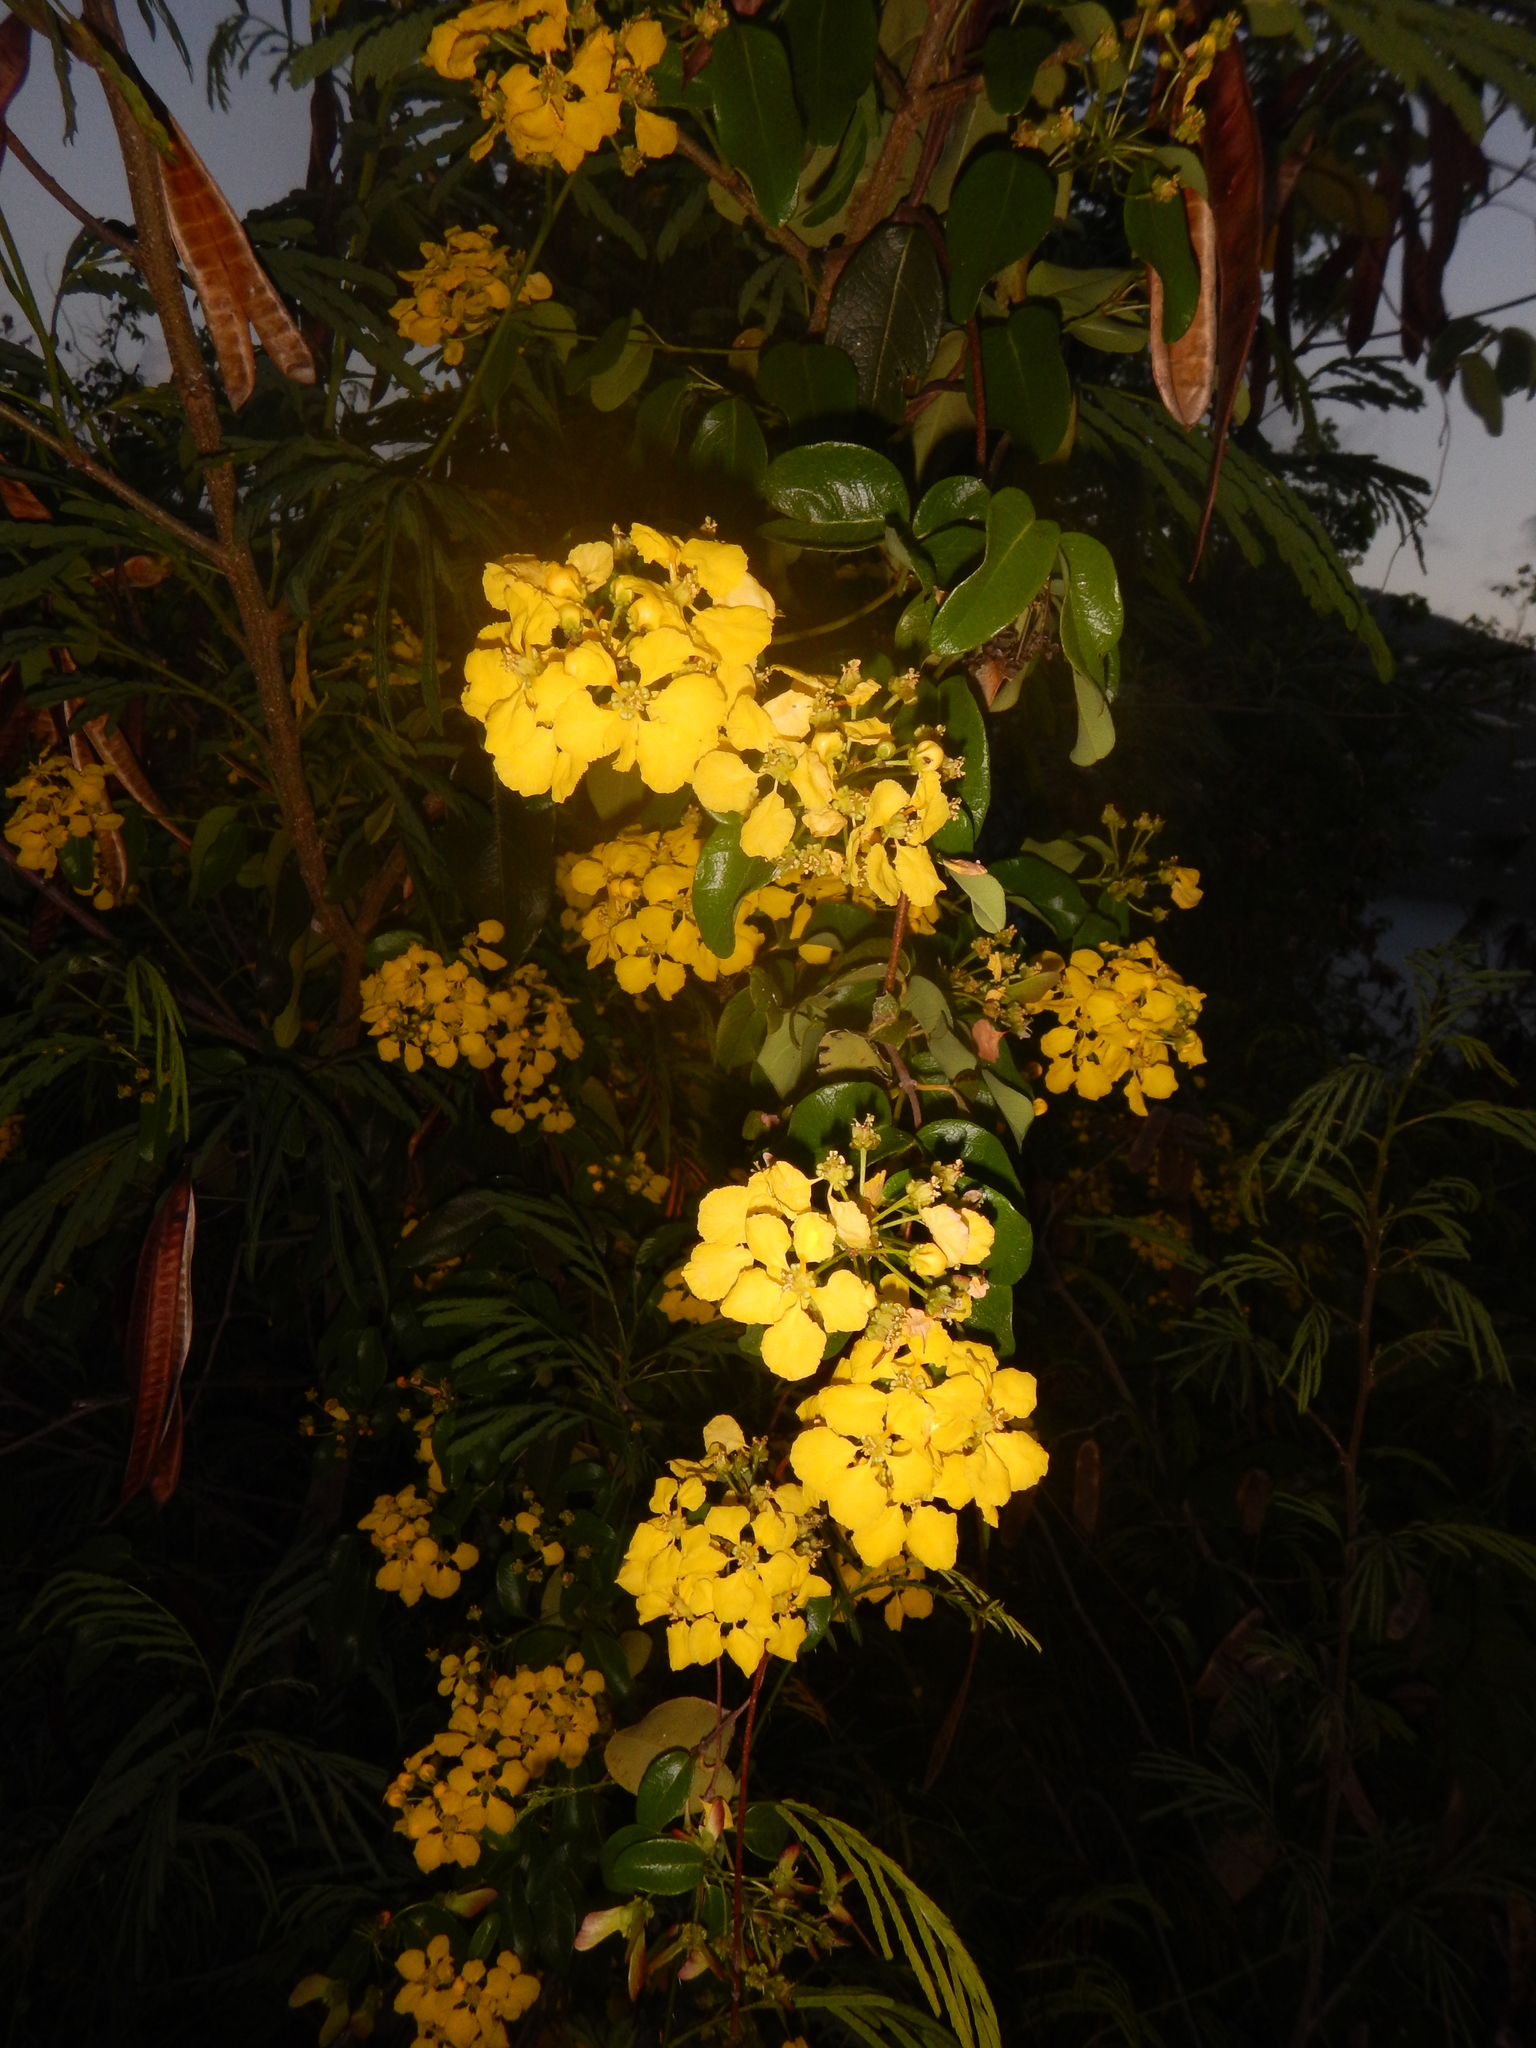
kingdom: Plantae
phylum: Tracheophyta
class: Magnoliopsida
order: Malpighiales
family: Malpighiaceae
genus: Stigmaphyllon
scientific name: Stigmaphyllon emarginatum
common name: Monarch amazonvine
